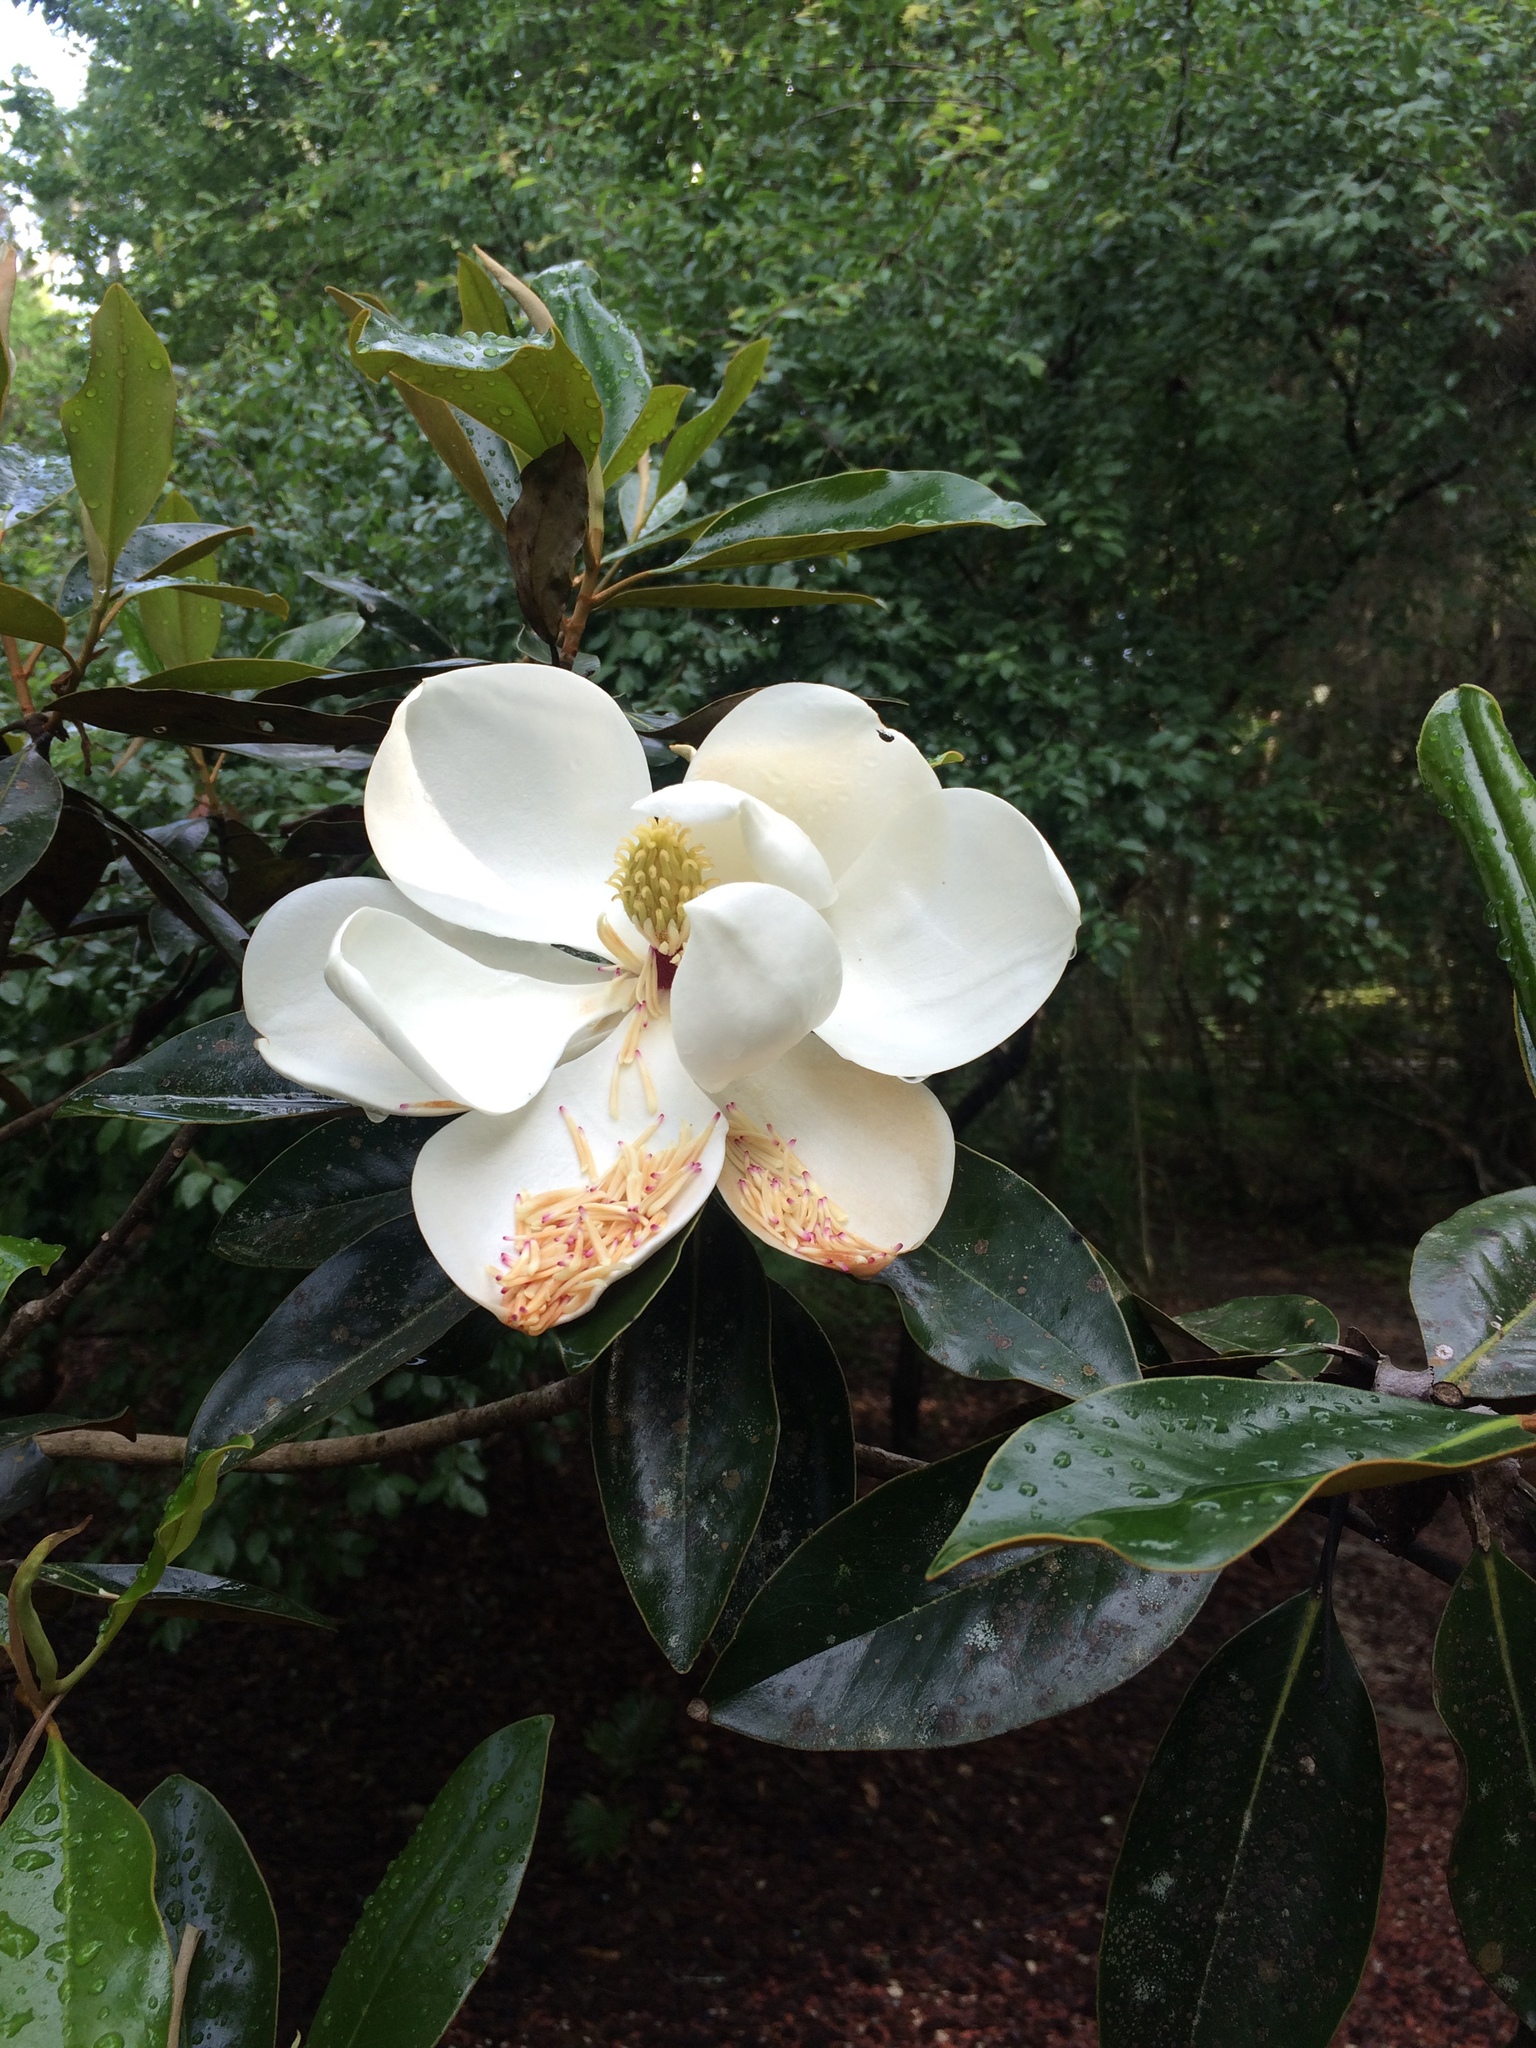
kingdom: Plantae
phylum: Tracheophyta
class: Magnoliopsida
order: Magnoliales
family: Magnoliaceae
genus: Magnolia
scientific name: Magnolia grandiflora
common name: Southern magnolia
